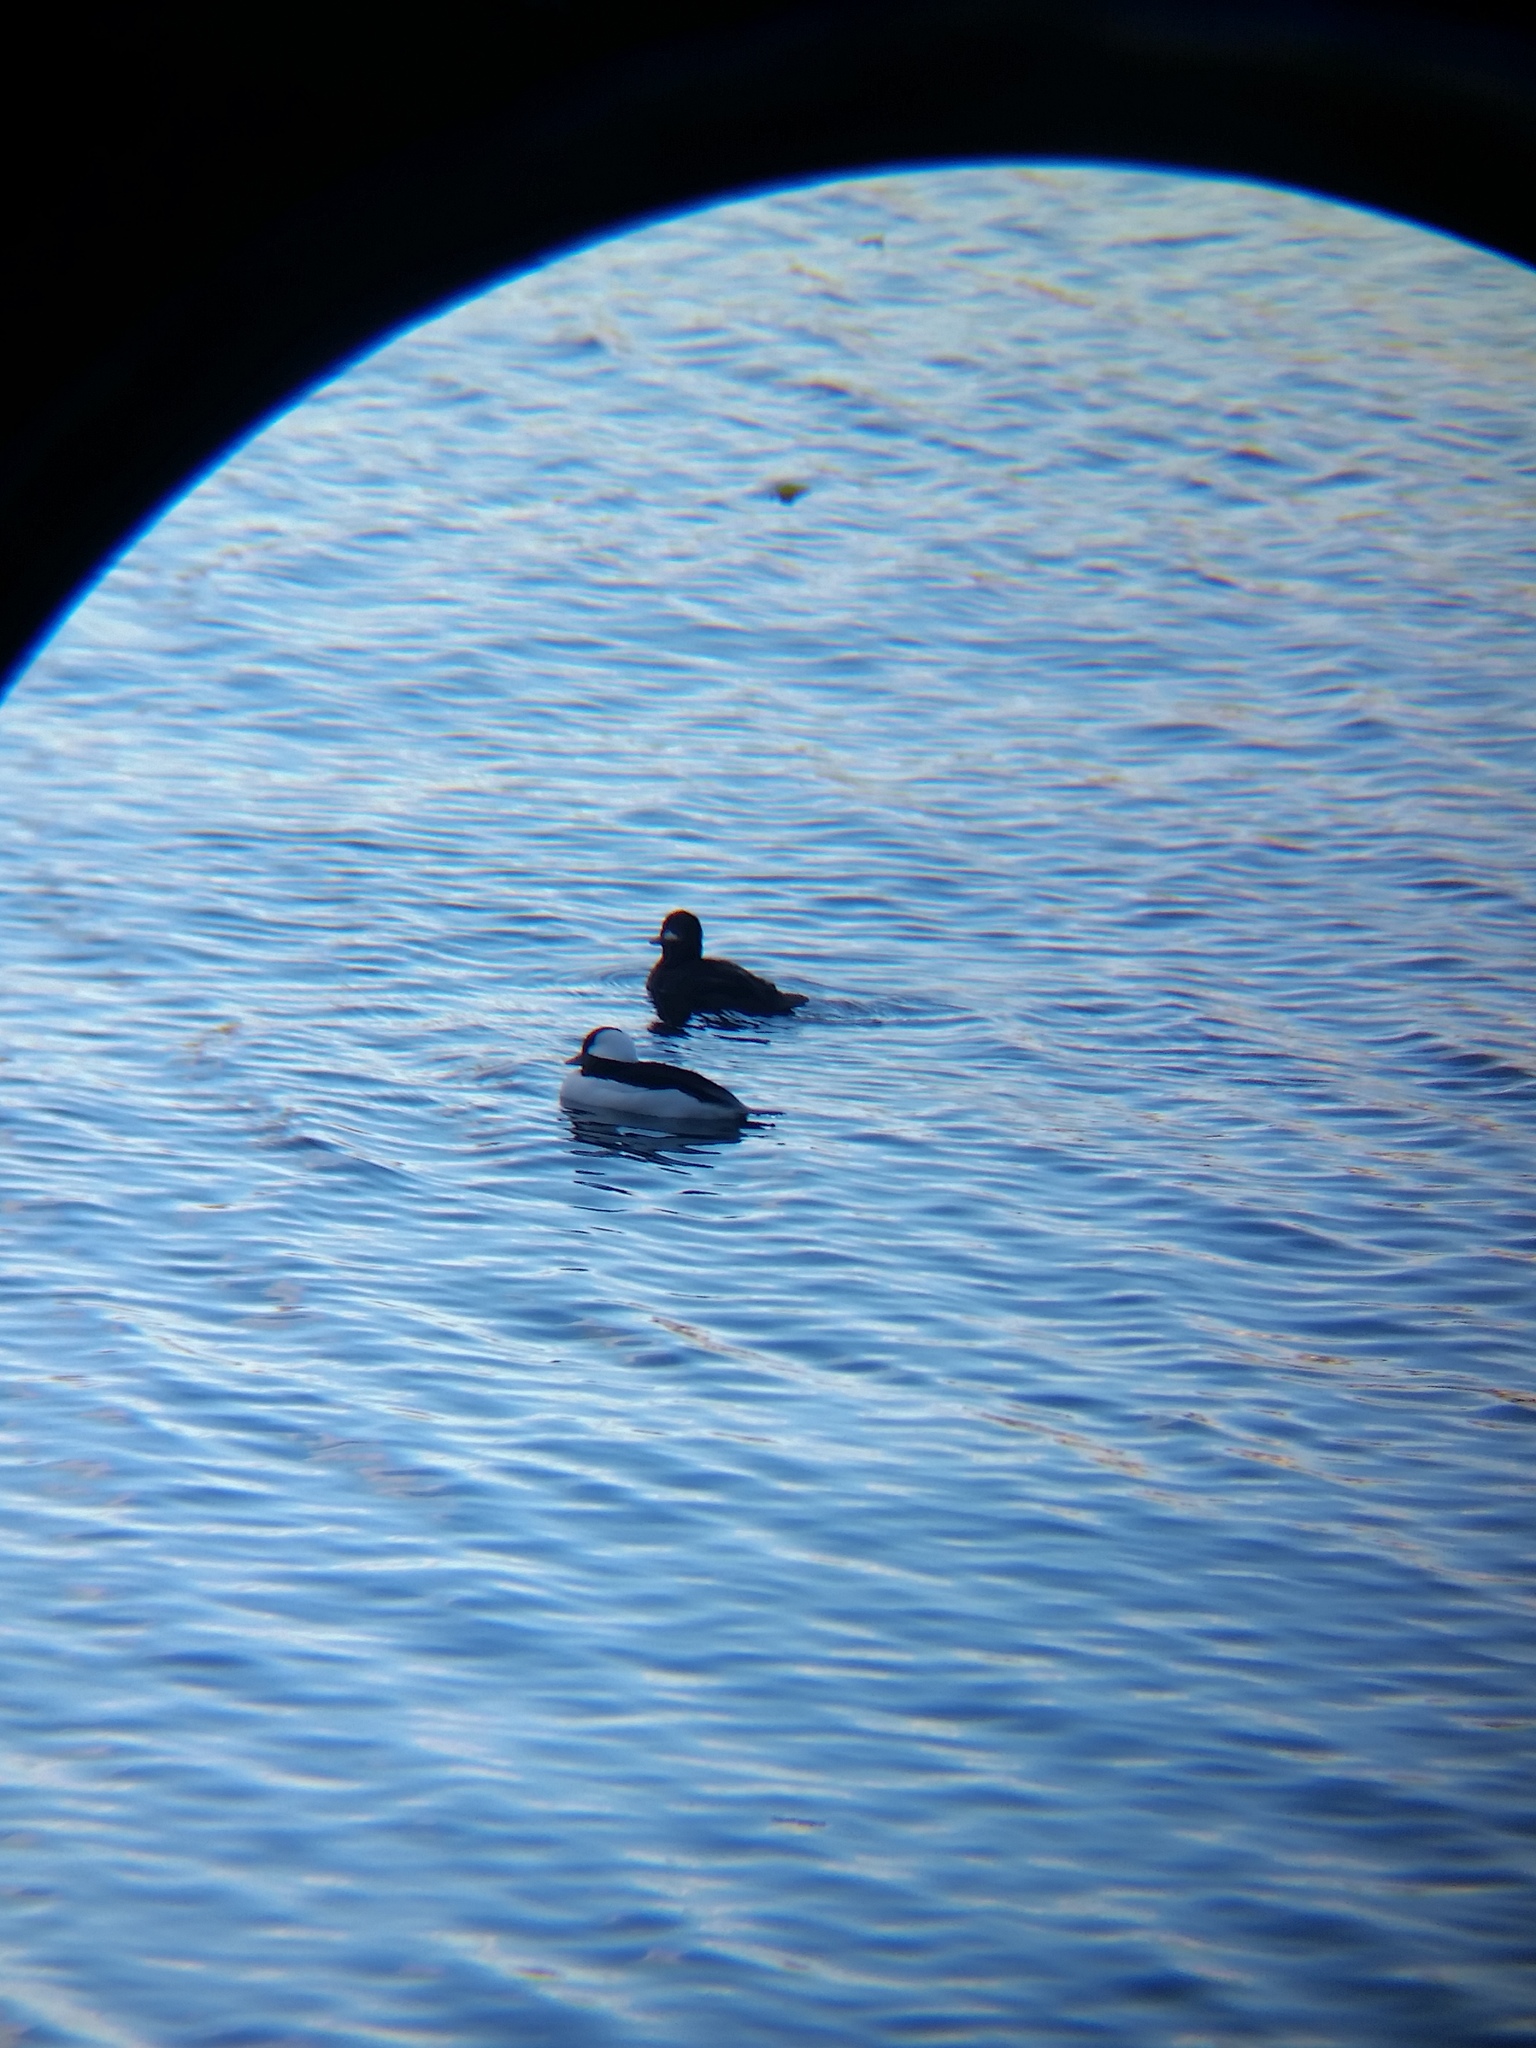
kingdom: Animalia
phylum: Chordata
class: Aves
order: Anseriformes
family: Anatidae
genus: Bucephala
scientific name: Bucephala albeola
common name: Bufflehead
